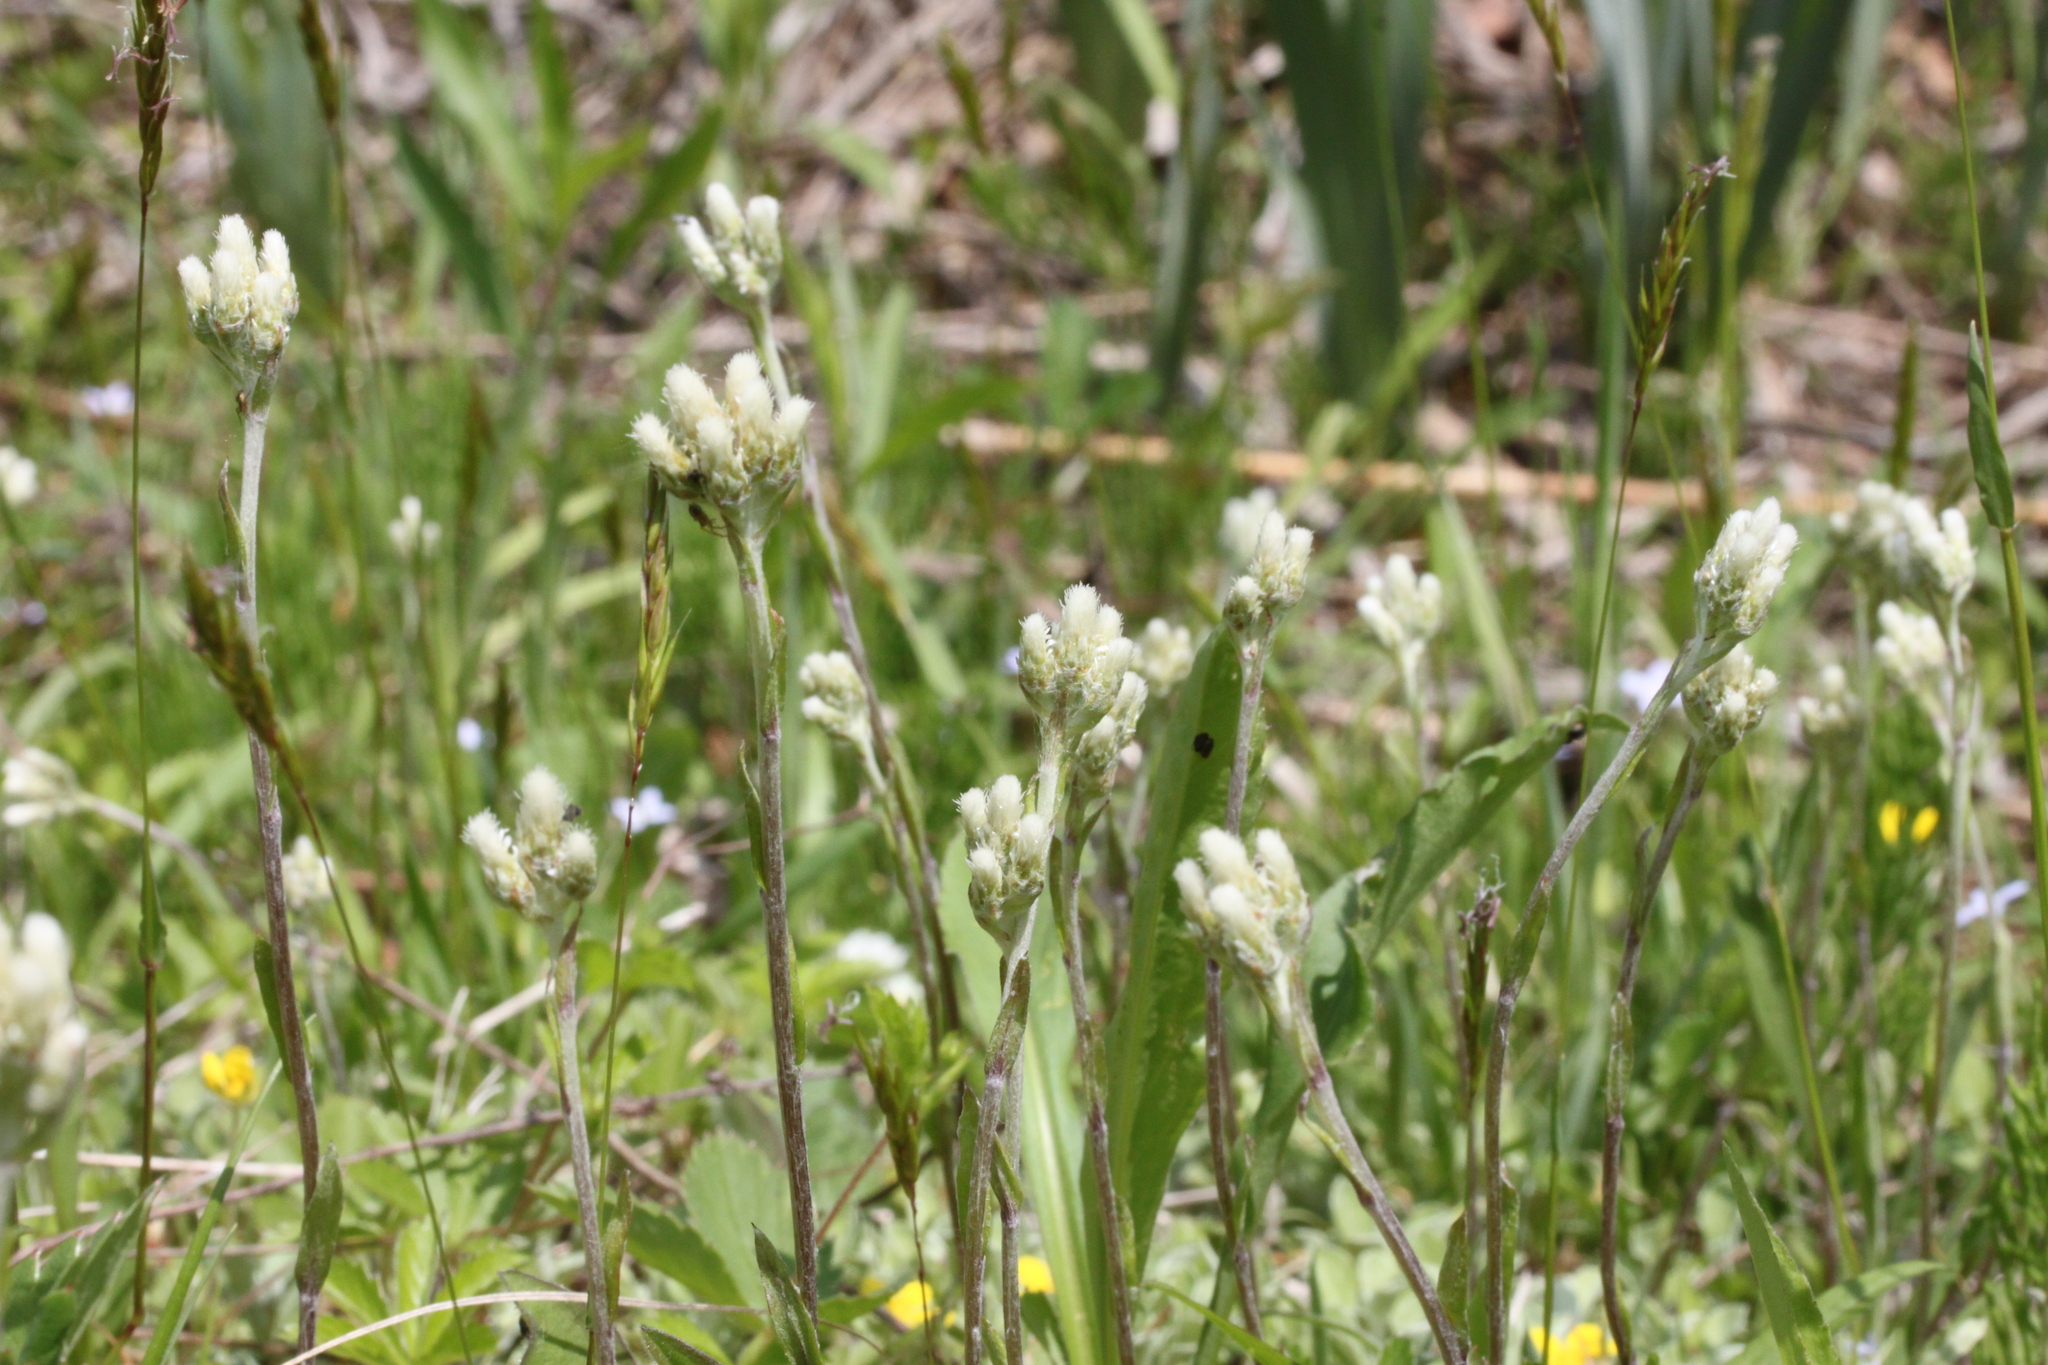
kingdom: Plantae
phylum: Tracheophyta
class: Magnoliopsida
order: Asterales
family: Asteraceae
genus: Antennaria
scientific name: Antennaria
